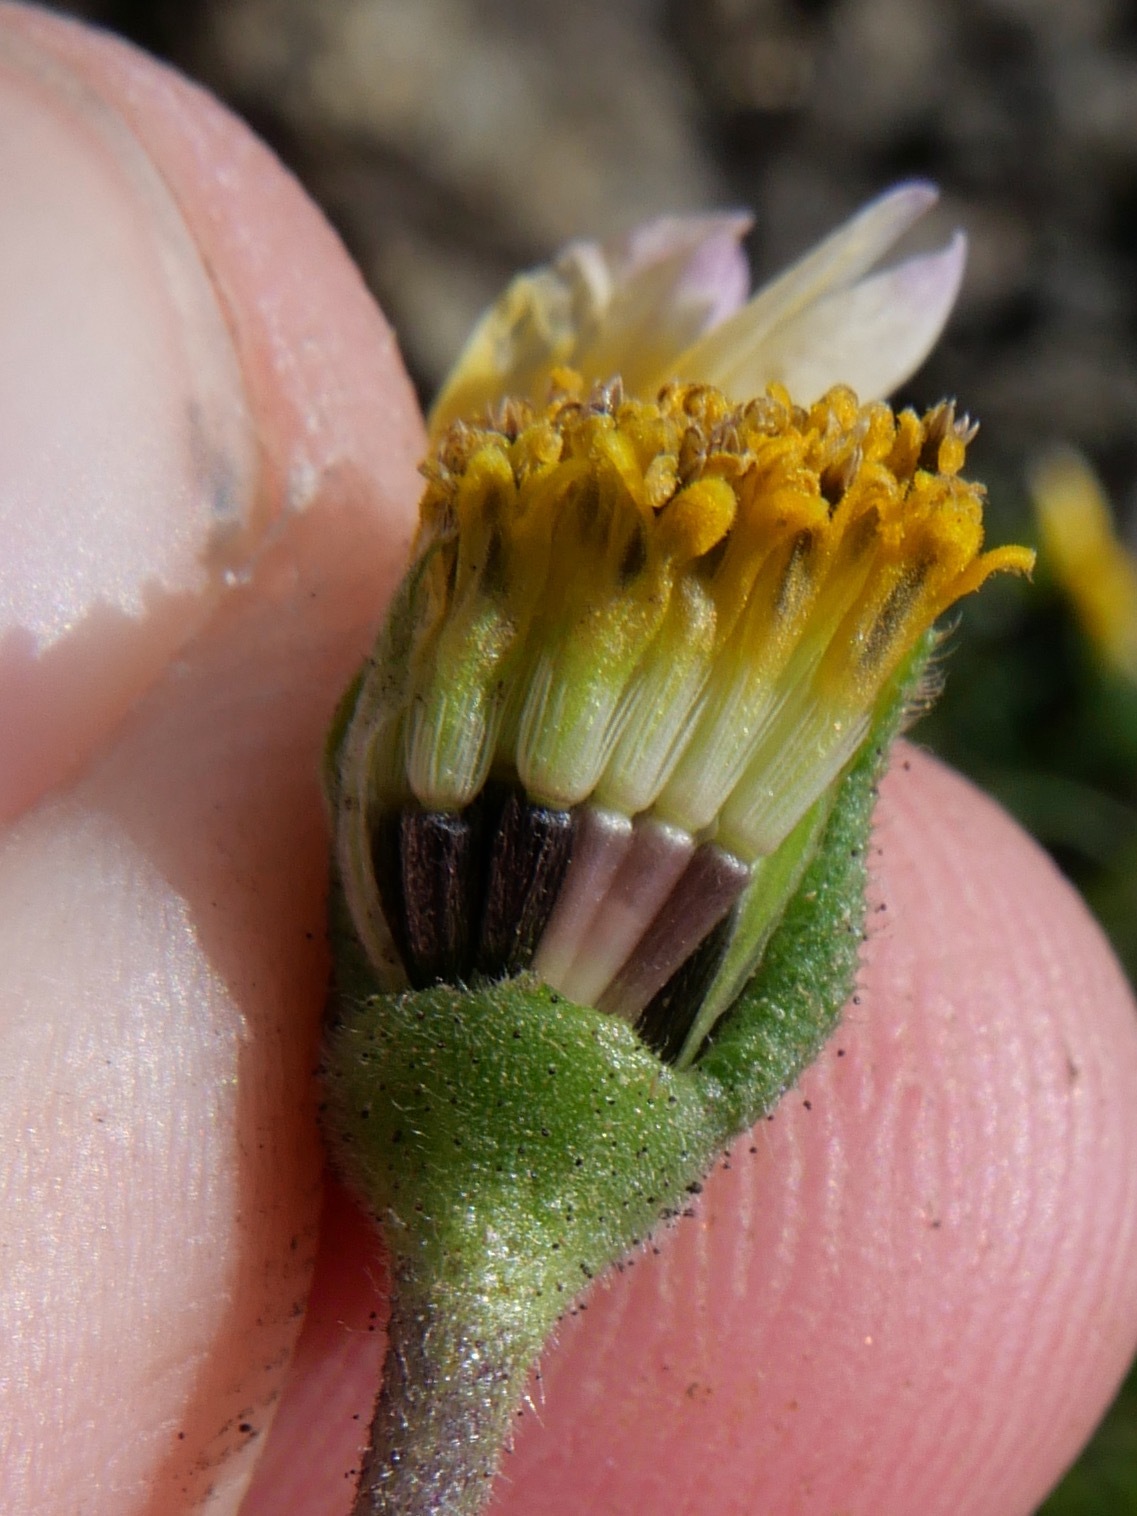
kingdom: Plantae
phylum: Tracheophyta
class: Magnoliopsida
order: Asterales
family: Asteraceae
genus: Layia
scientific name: Layia platyglossa
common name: Tidy-tips
